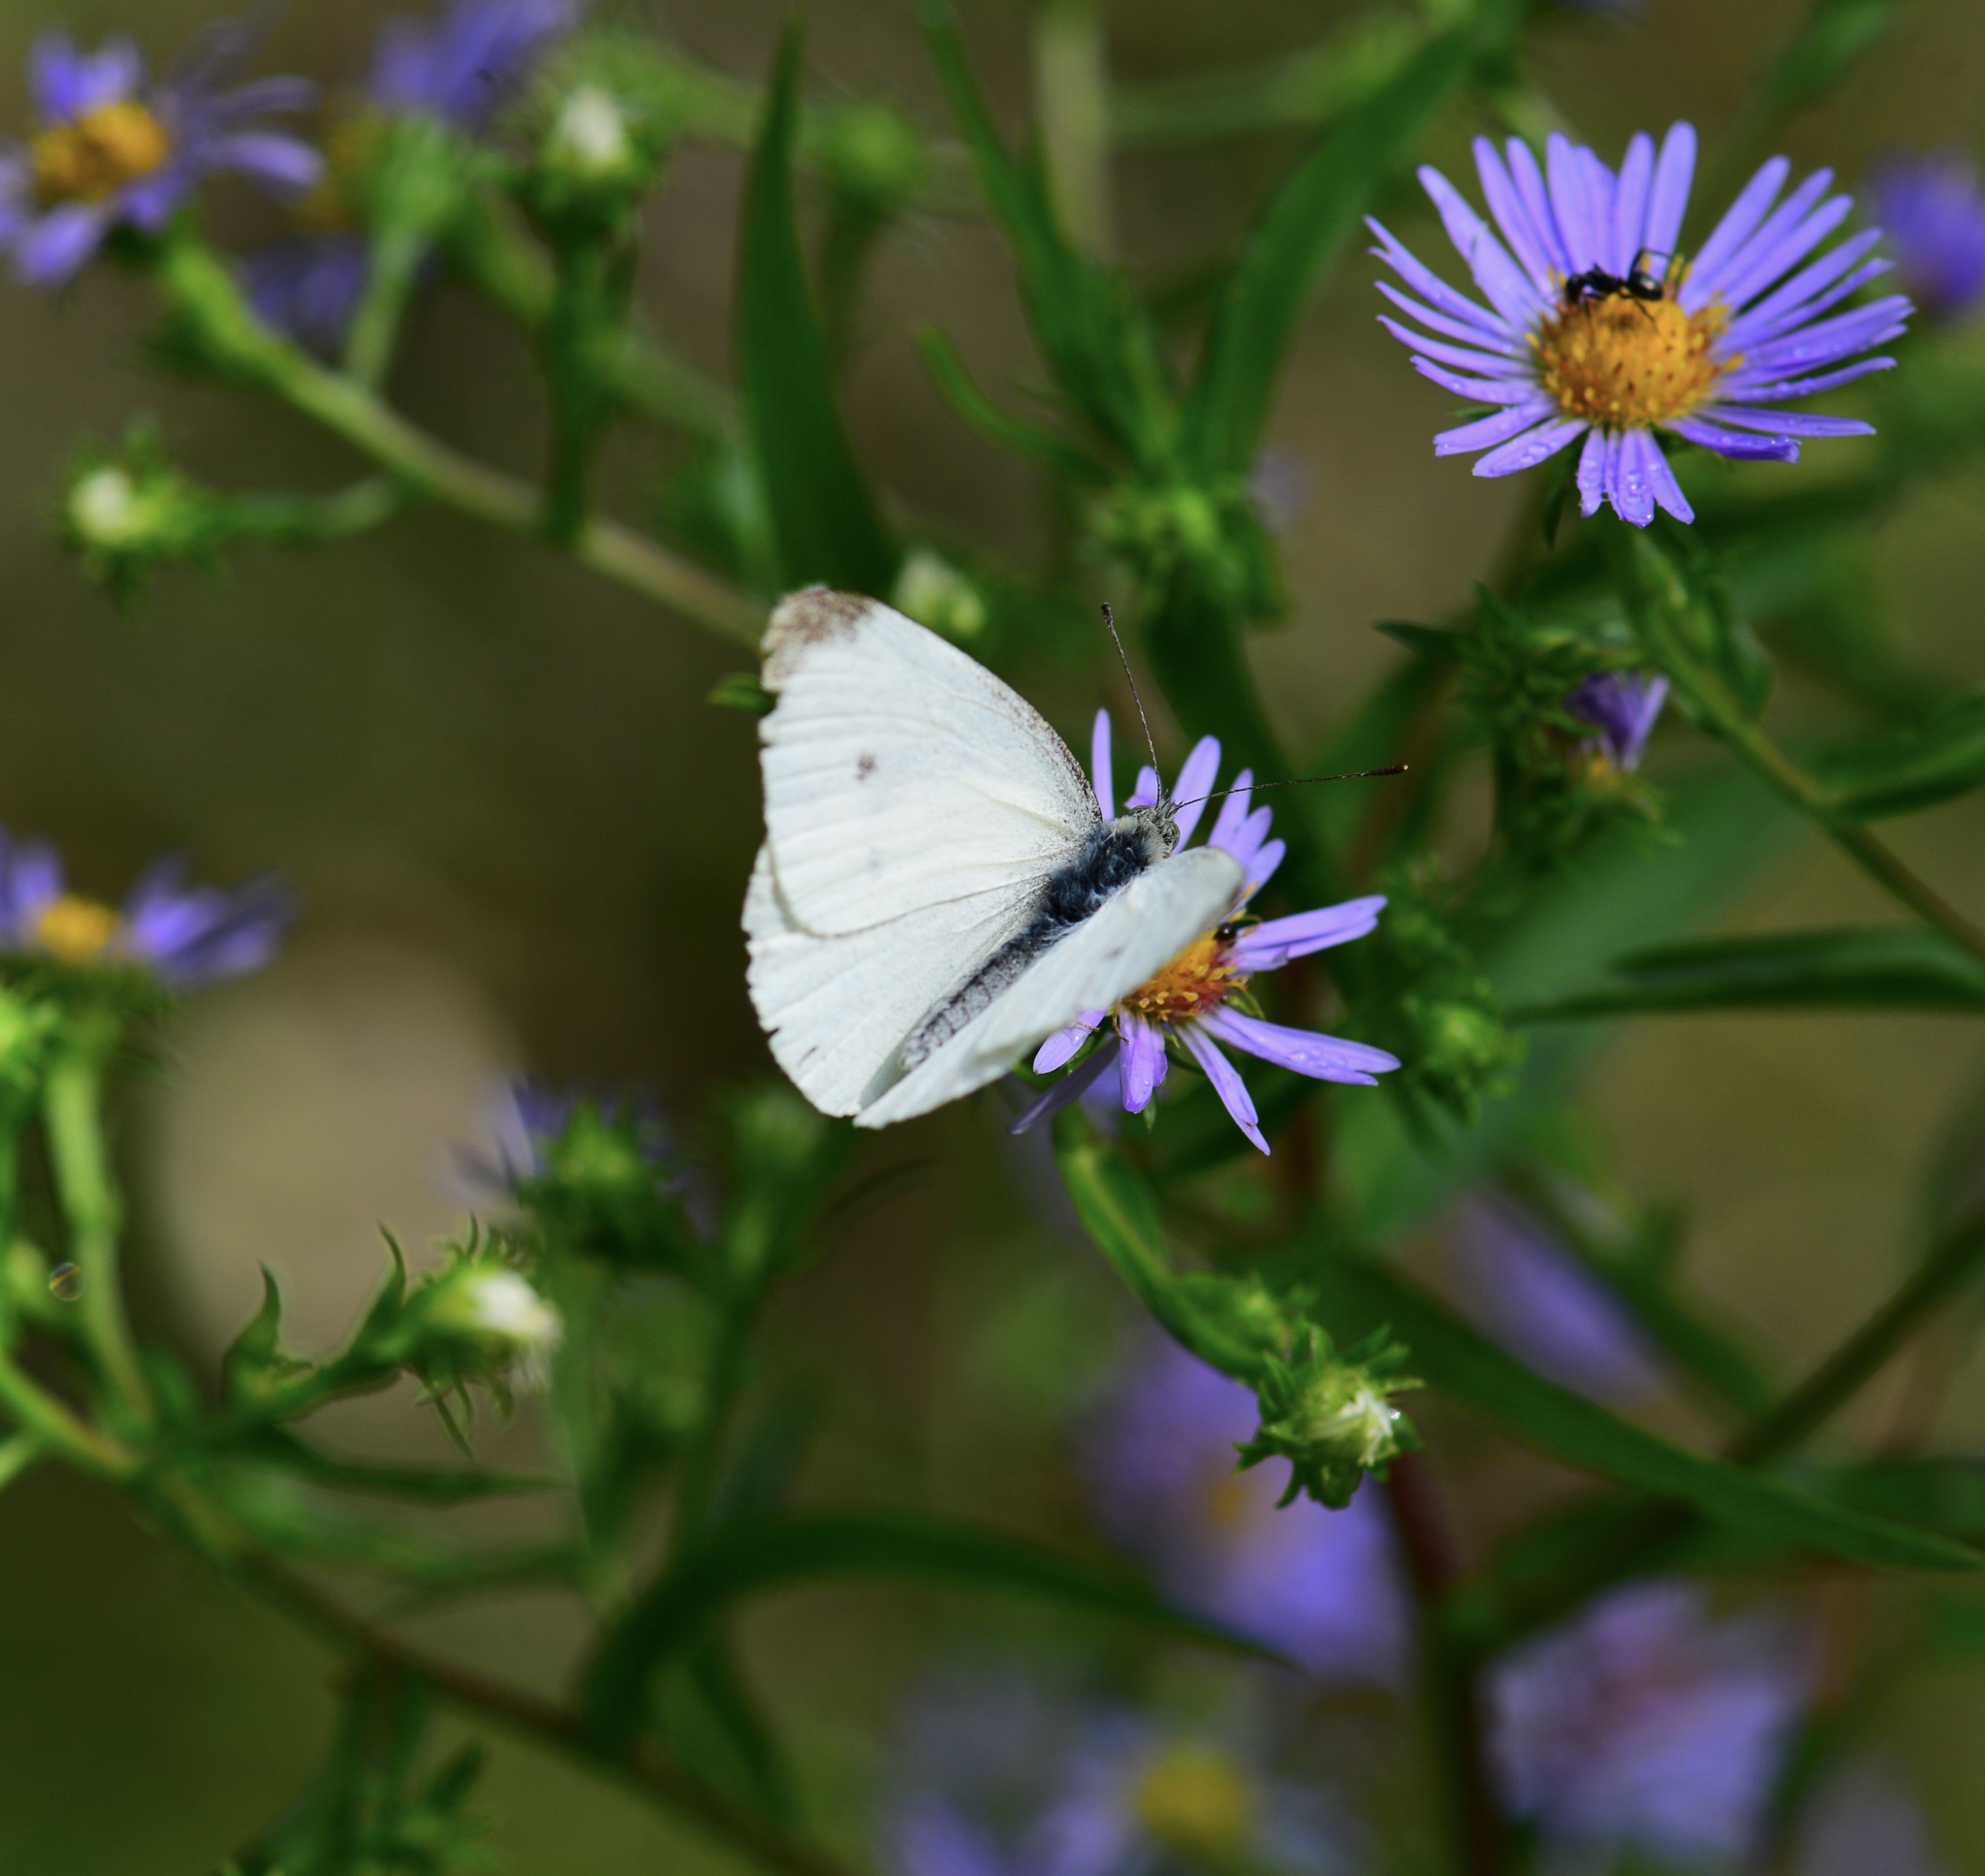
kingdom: Animalia
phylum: Arthropoda
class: Insecta
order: Lepidoptera
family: Pieridae
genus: Pieris
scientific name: Pieris rapae
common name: Small white
